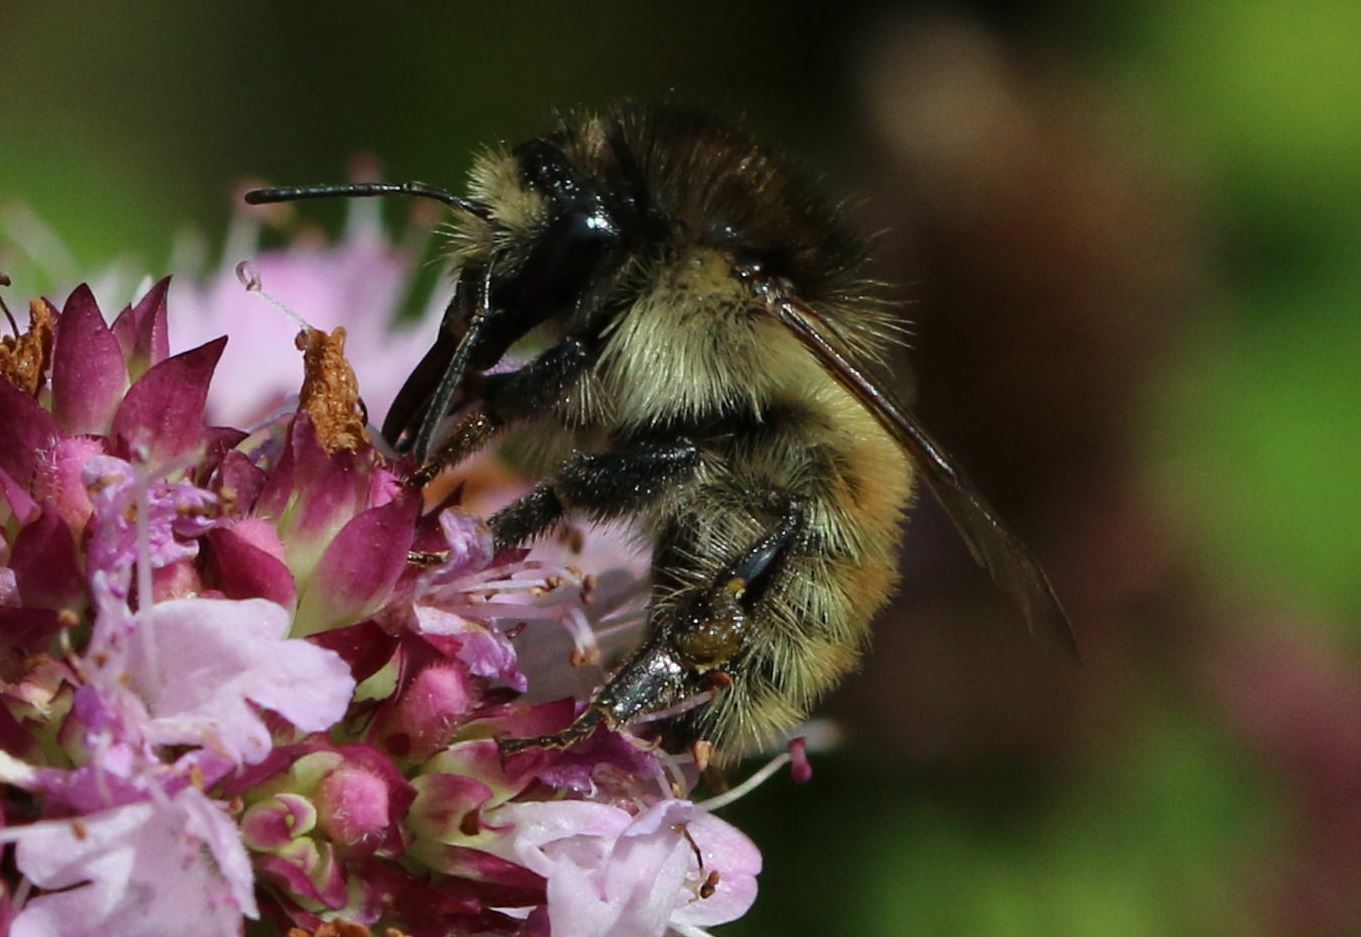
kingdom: Animalia
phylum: Arthropoda
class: Insecta
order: Hymenoptera
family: Apidae
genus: Bombus
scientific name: Bombus humilis
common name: Brown-banded carder-bee
